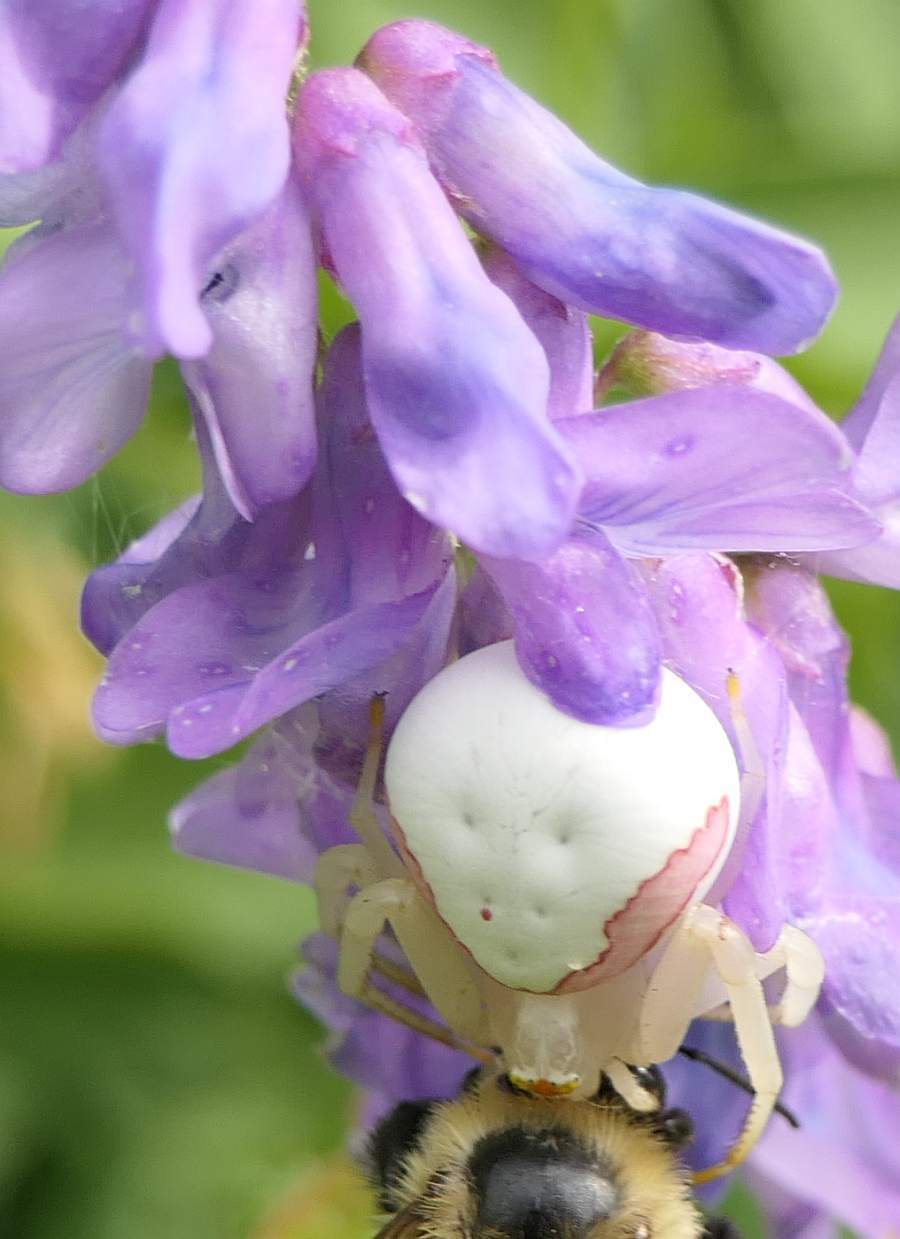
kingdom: Animalia
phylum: Arthropoda
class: Arachnida
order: Araneae
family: Thomisidae
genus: Misumena
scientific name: Misumena vatia
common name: Goldenrod crab spider
